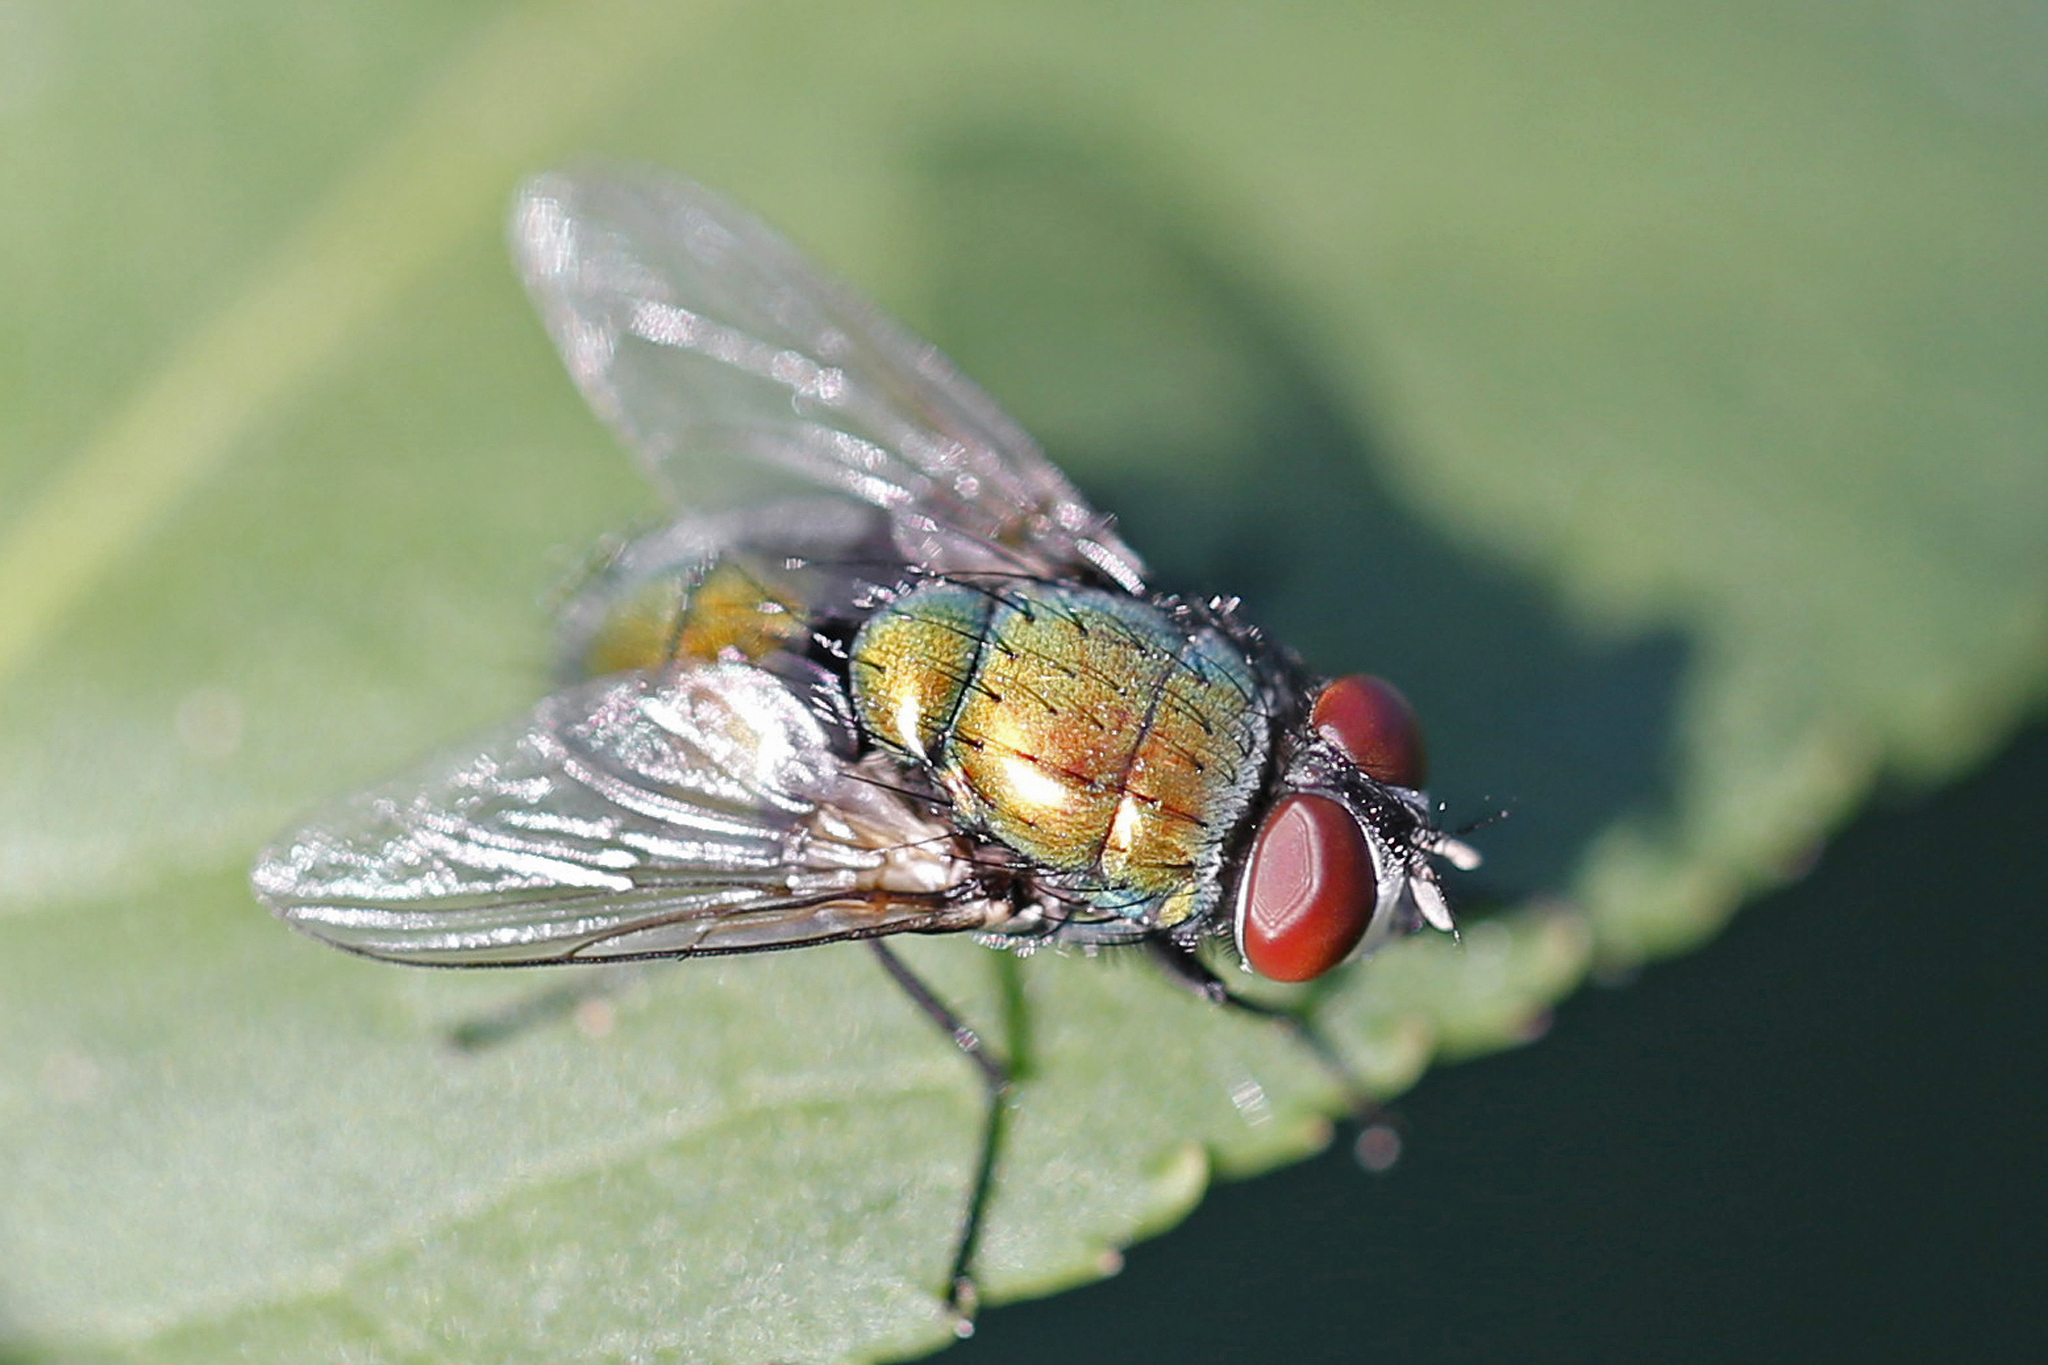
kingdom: Animalia
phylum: Arthropoda
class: Insecta
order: Diptera
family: Calliphoridae
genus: Lucilia
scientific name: Lucilia sericata
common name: Blow fly
